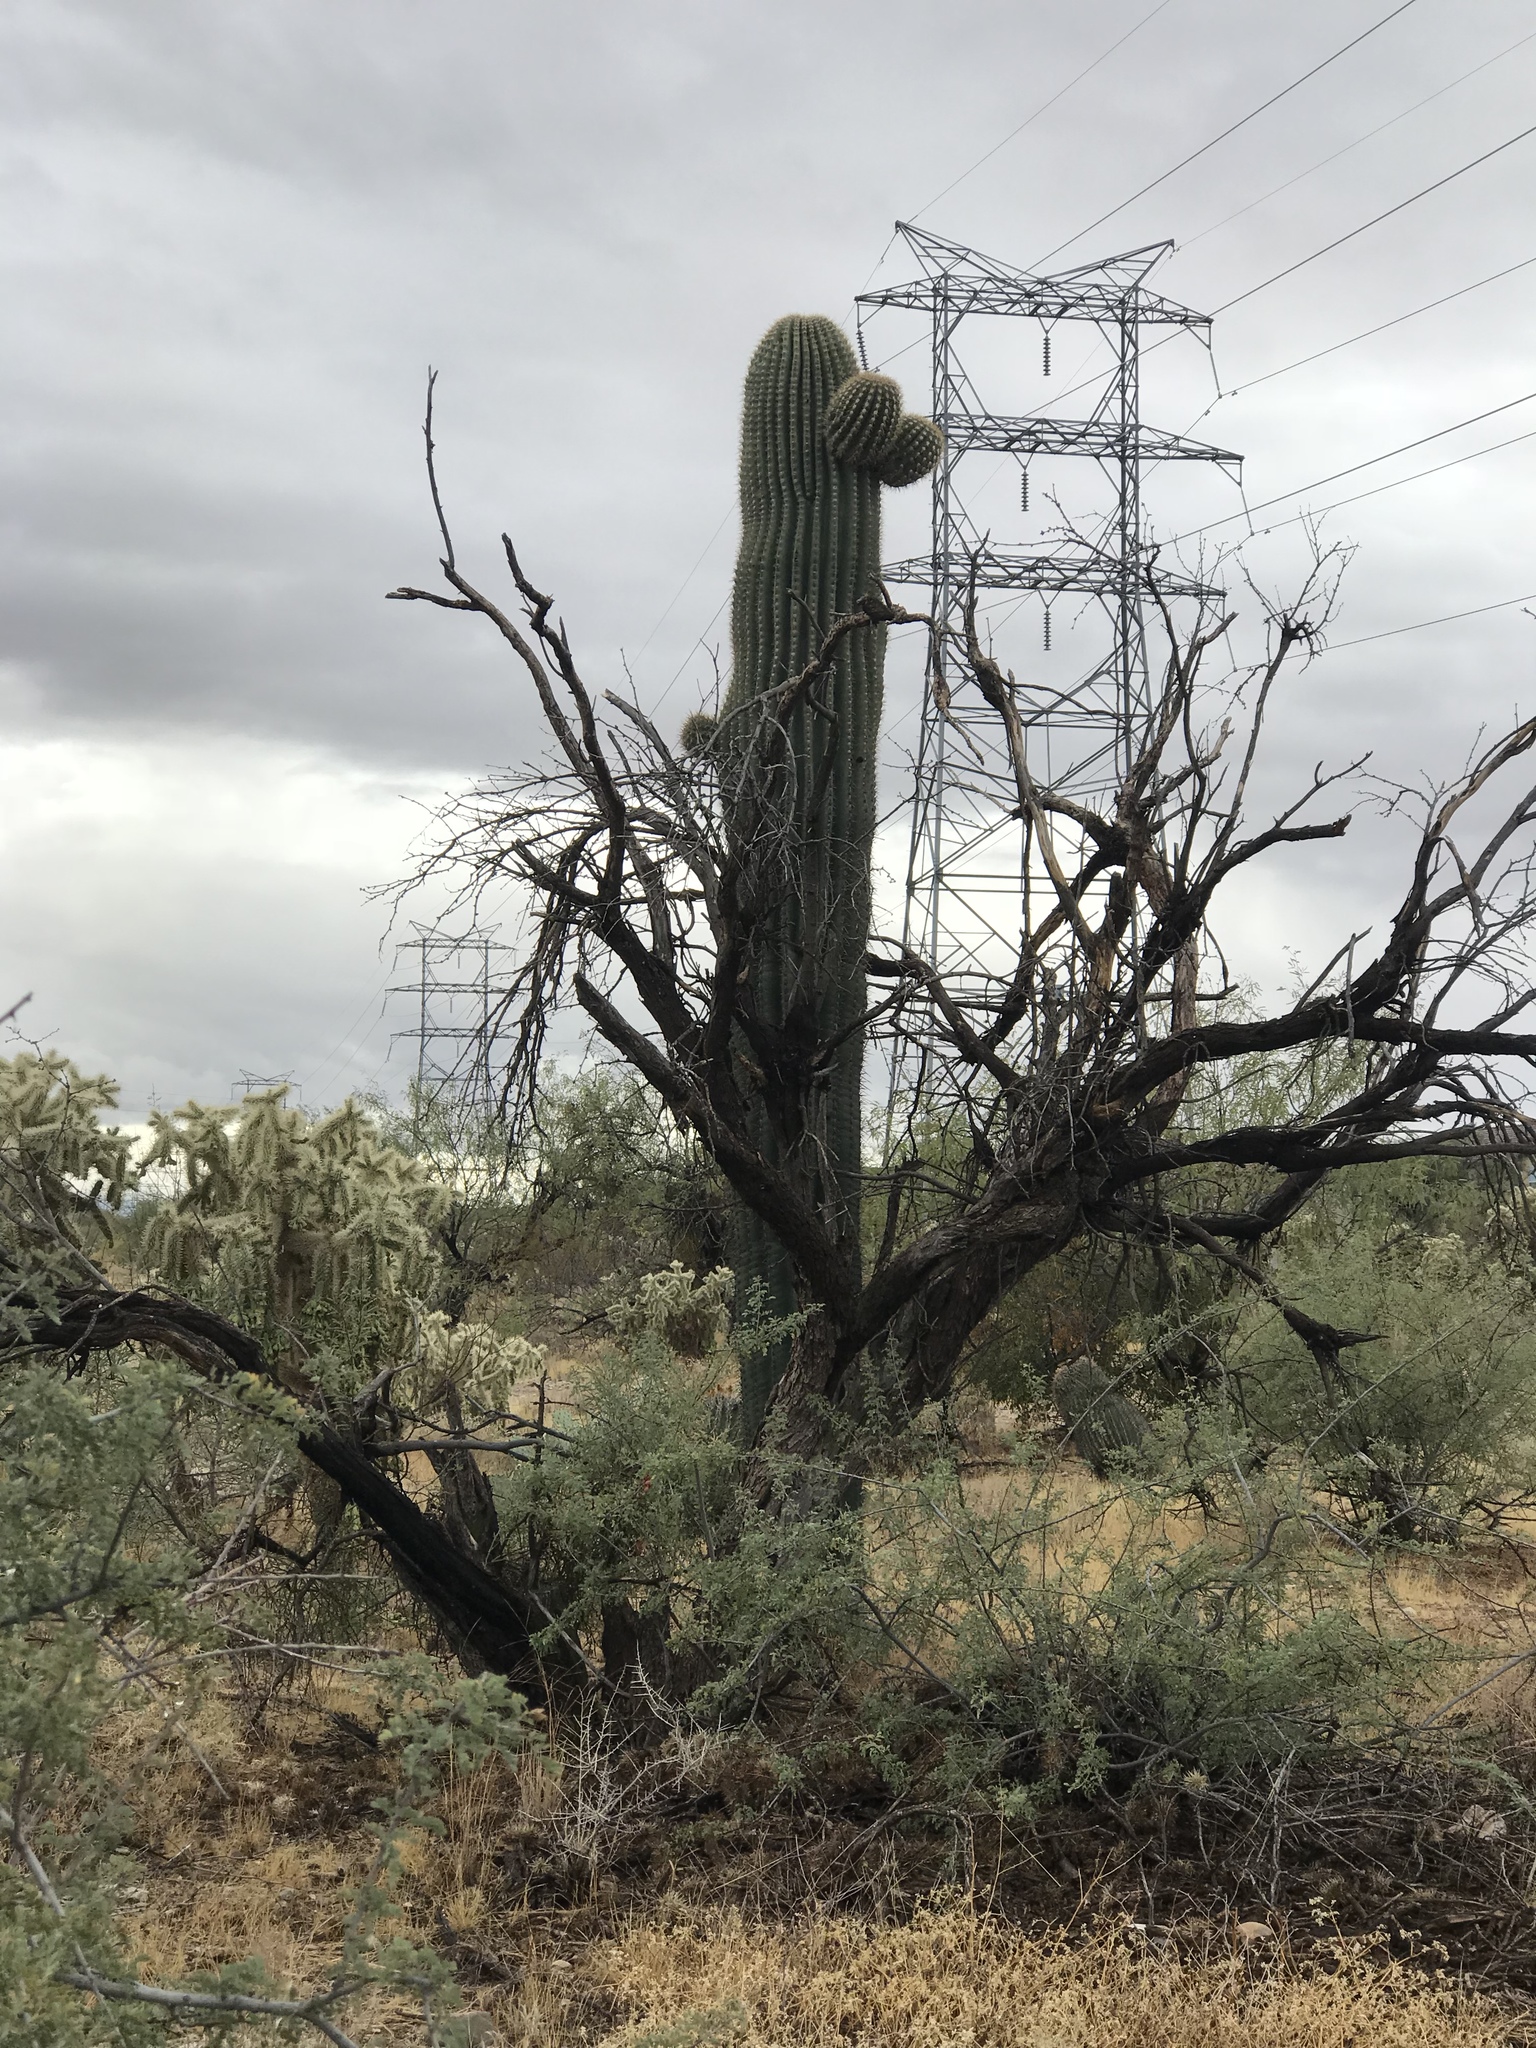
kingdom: Plantae
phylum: Tracheophyta
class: Magnoliopsida
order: Caryophyllales
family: Cactaceae
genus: Carnegiea
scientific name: Carnegiea gigantea
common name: Saguaro
